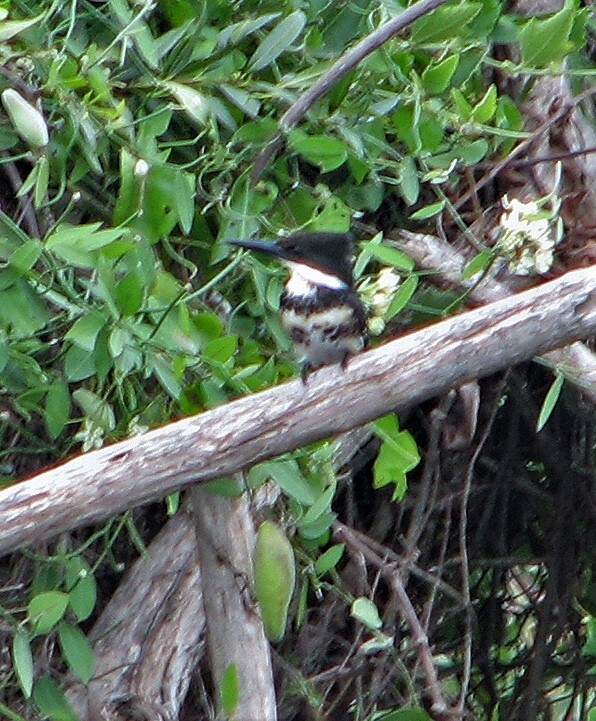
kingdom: Animalia
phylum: Chordata
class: Aves
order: Coraciiformes
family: Alcedinidae
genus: Chloroceryle
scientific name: Chloroceryle americana
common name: Green kingfisher
